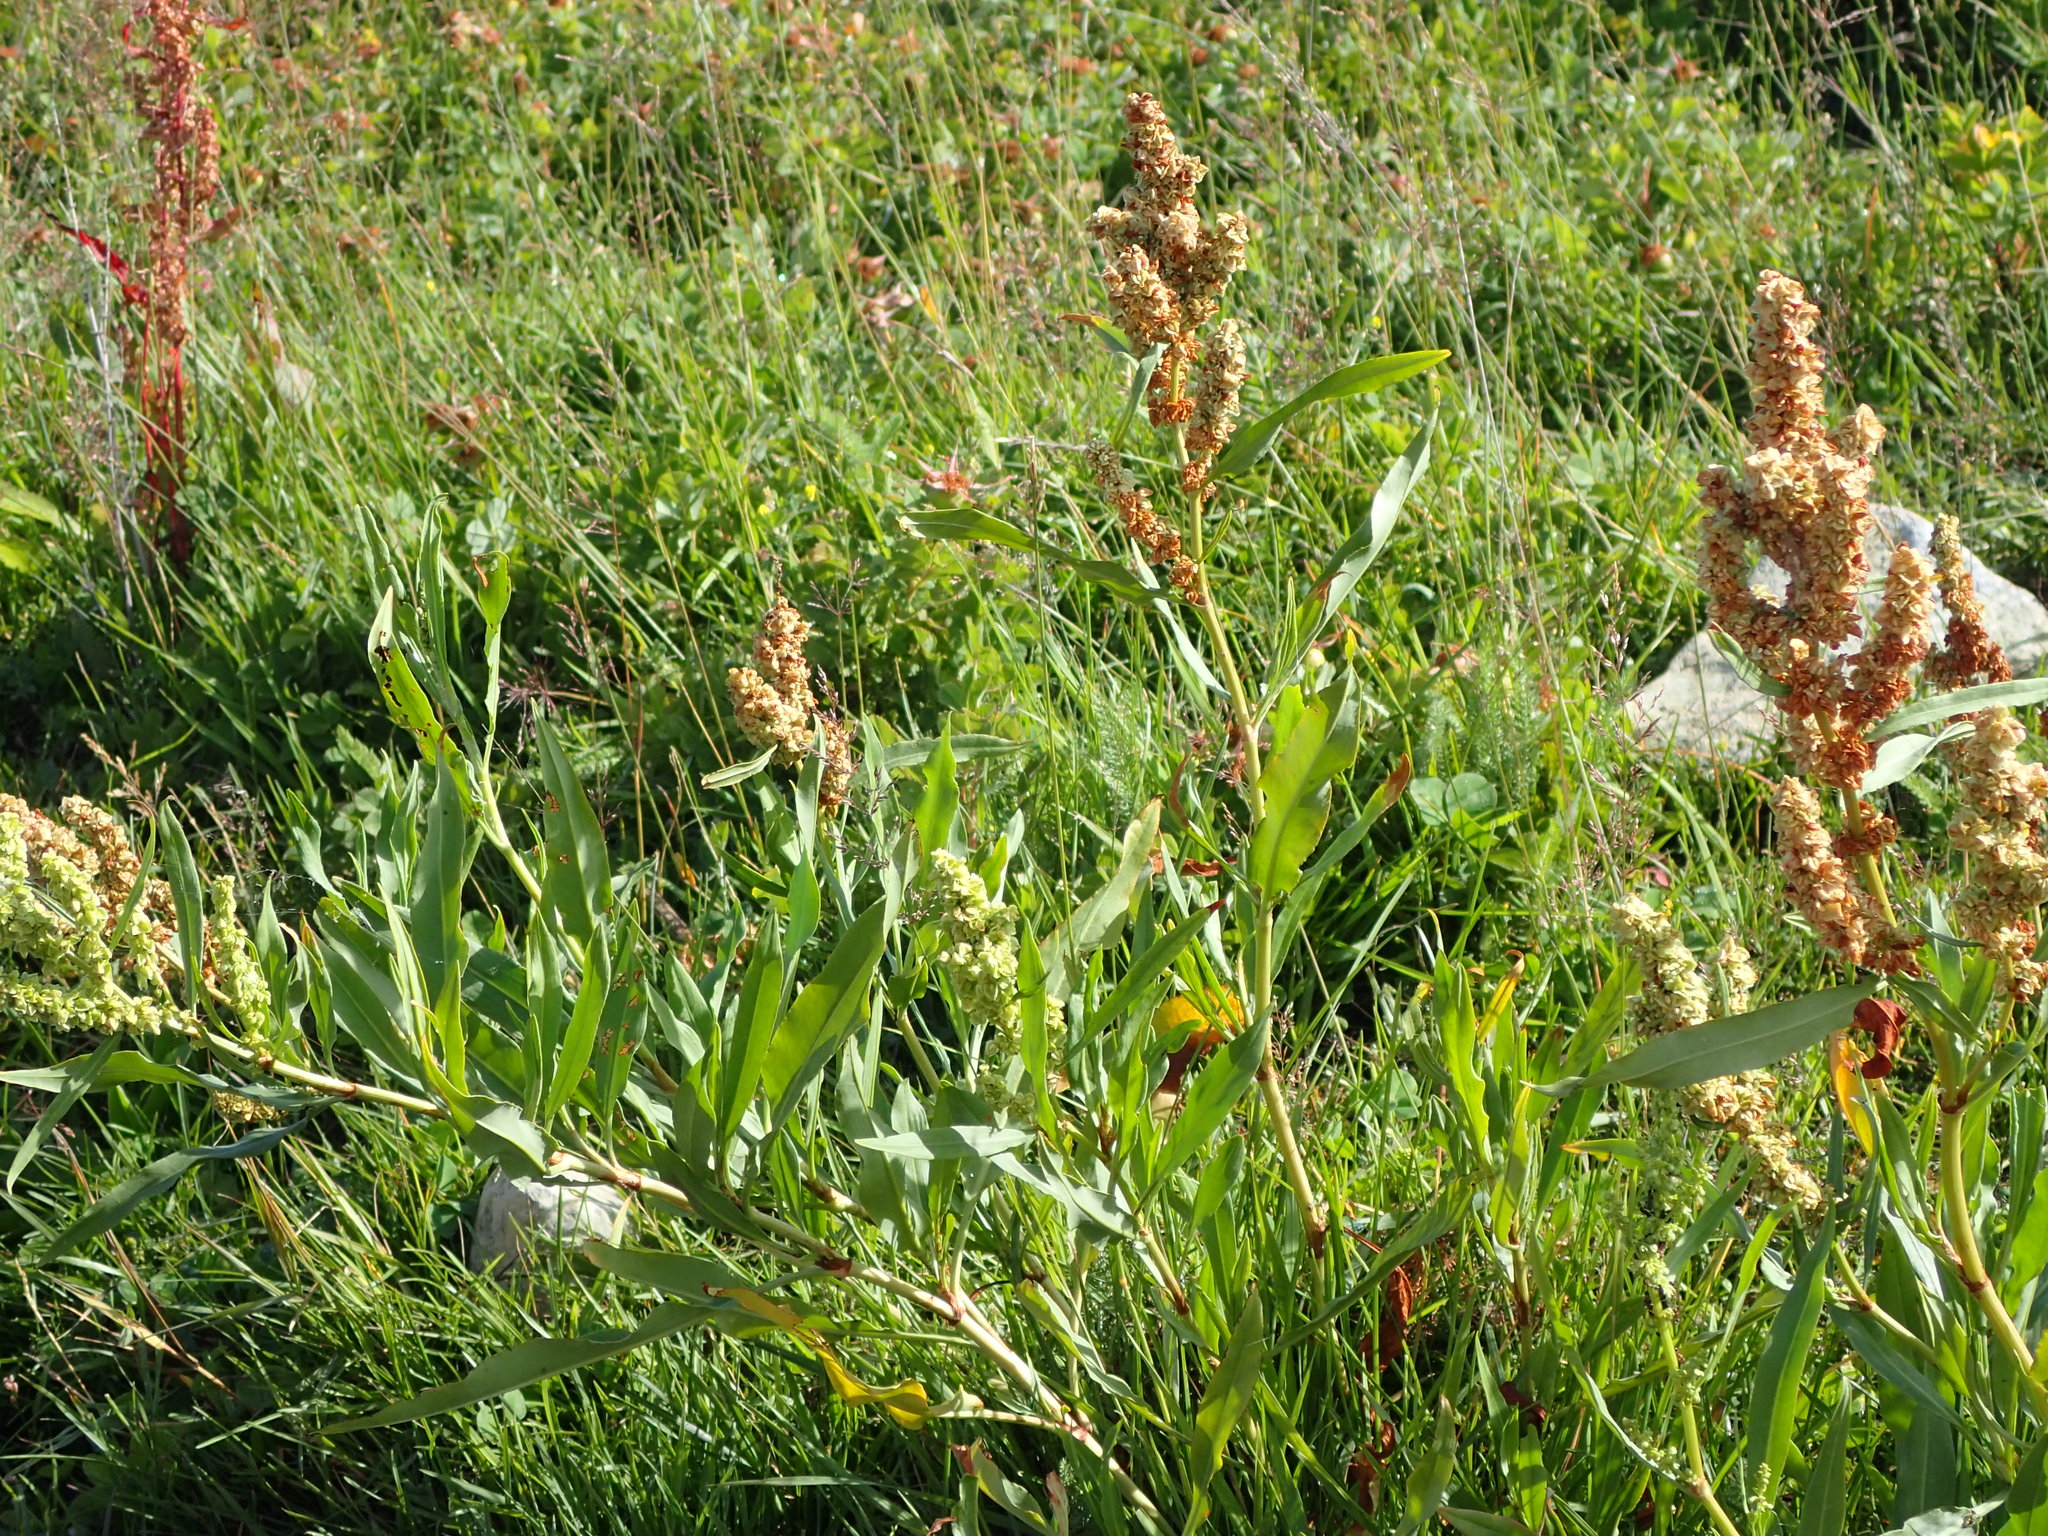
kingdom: Plantae
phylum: Tracheophyta
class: Magnoliopsida
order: Caryophyllales
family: Polygonaceae
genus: Rumex
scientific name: Rumex triangulivalvis
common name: Triangular-valve dock
